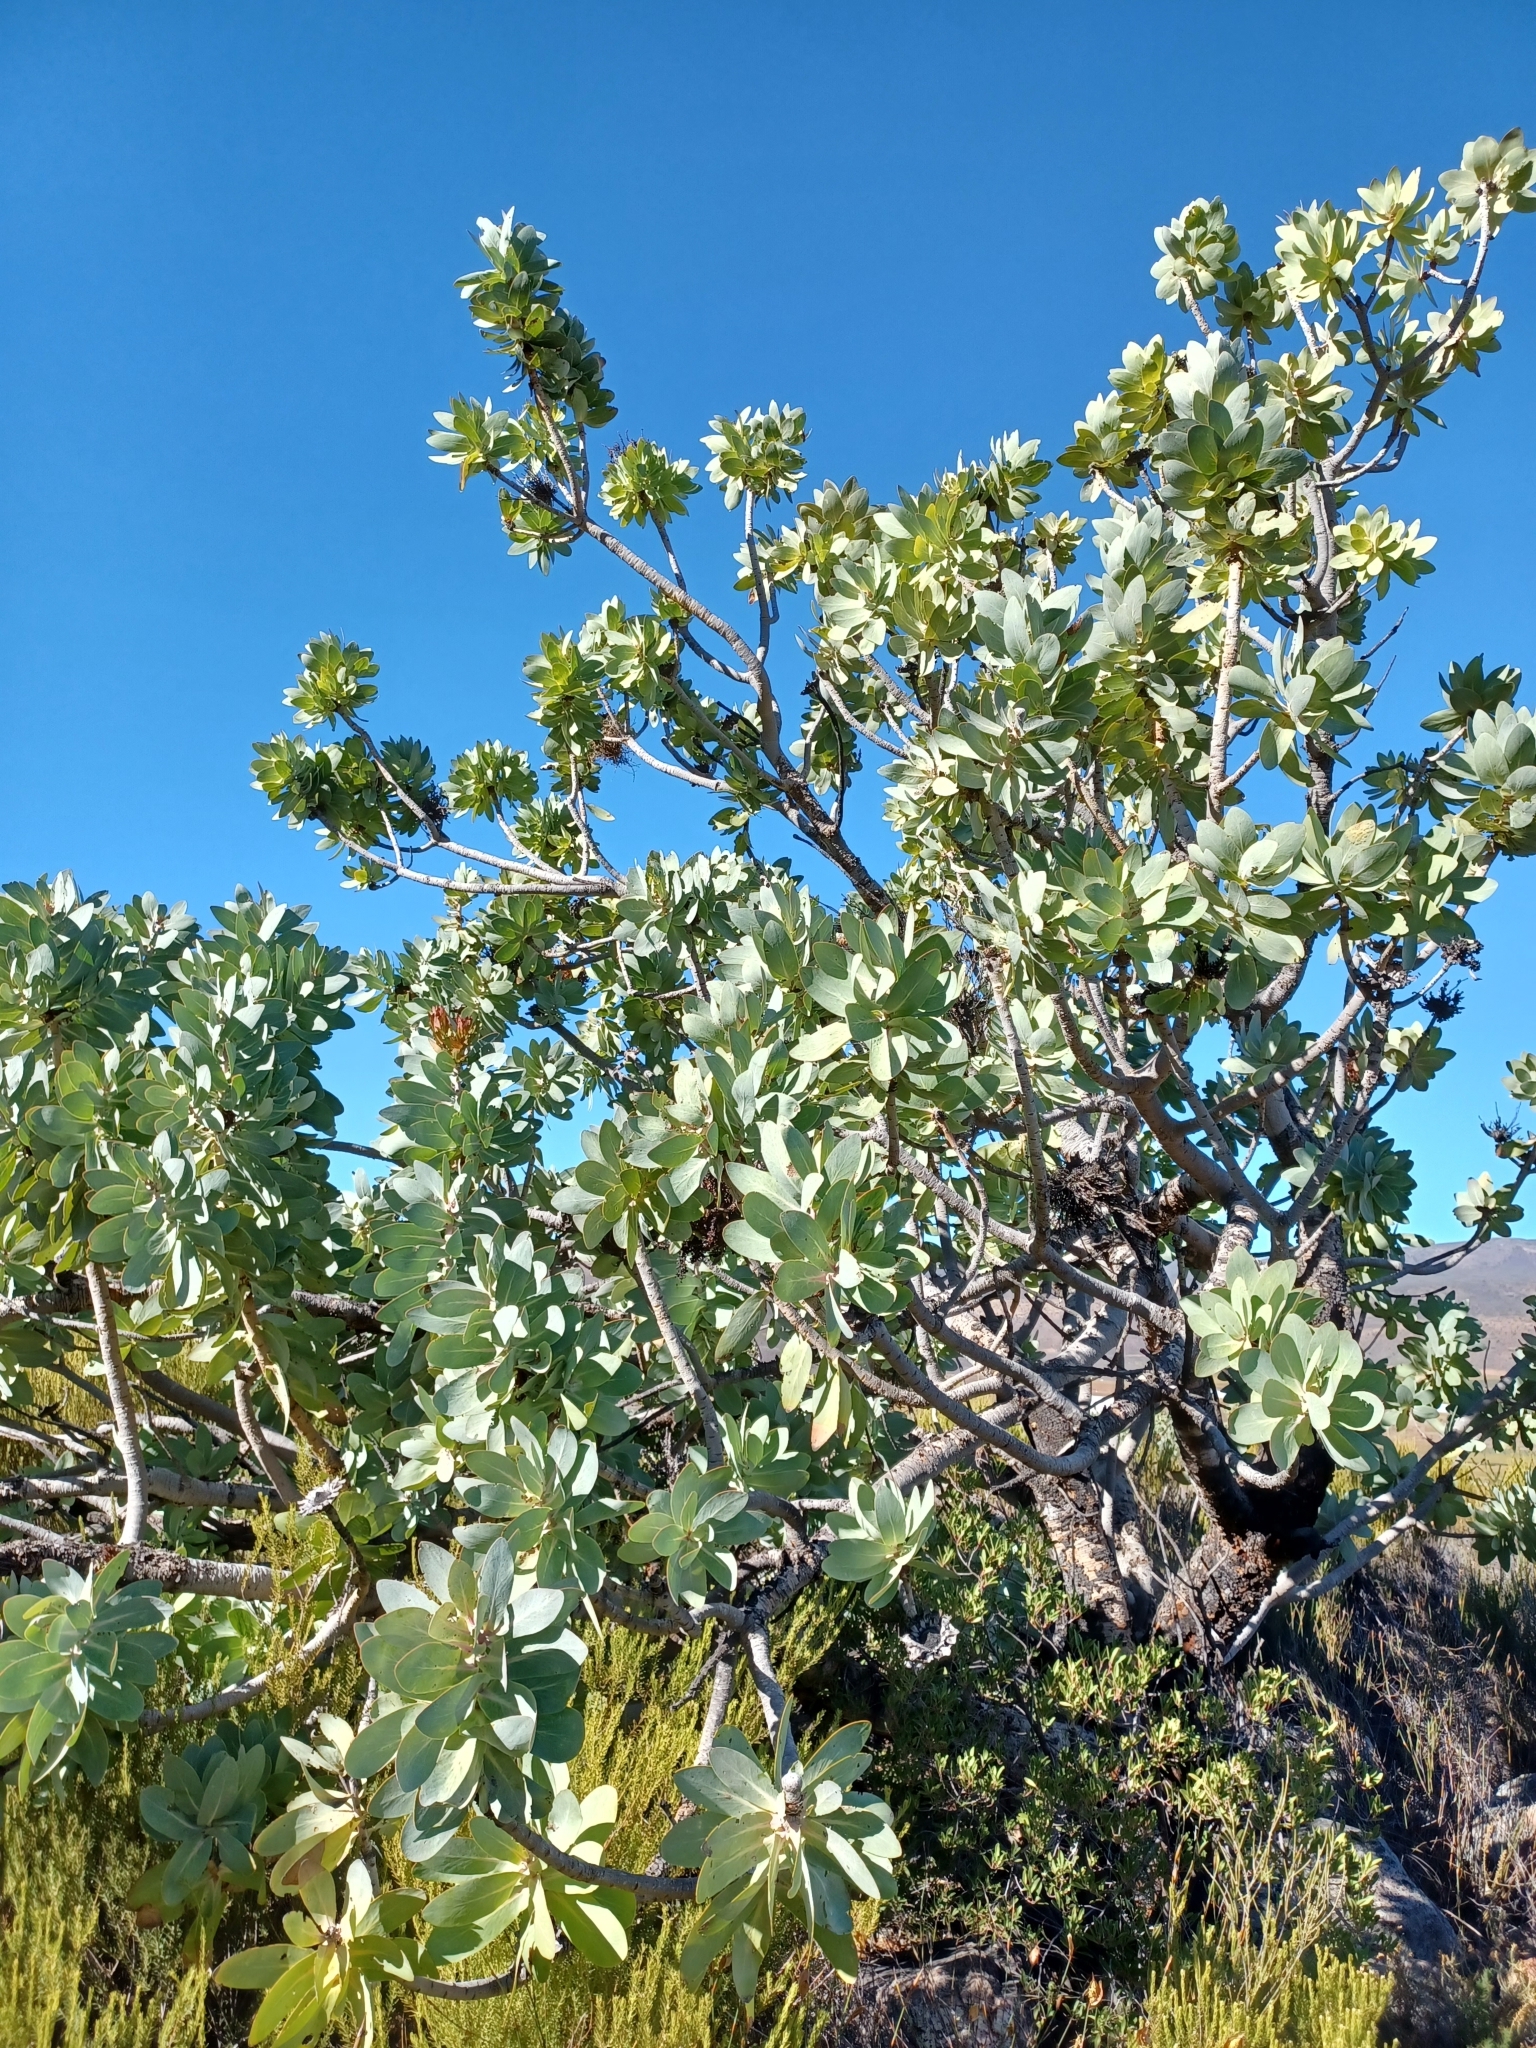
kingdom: Plantae
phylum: Tracheophyta
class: Magnoliopsida
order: Proteales
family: Proteaceae
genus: Protea
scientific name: Protea nitida
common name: Tree protea
